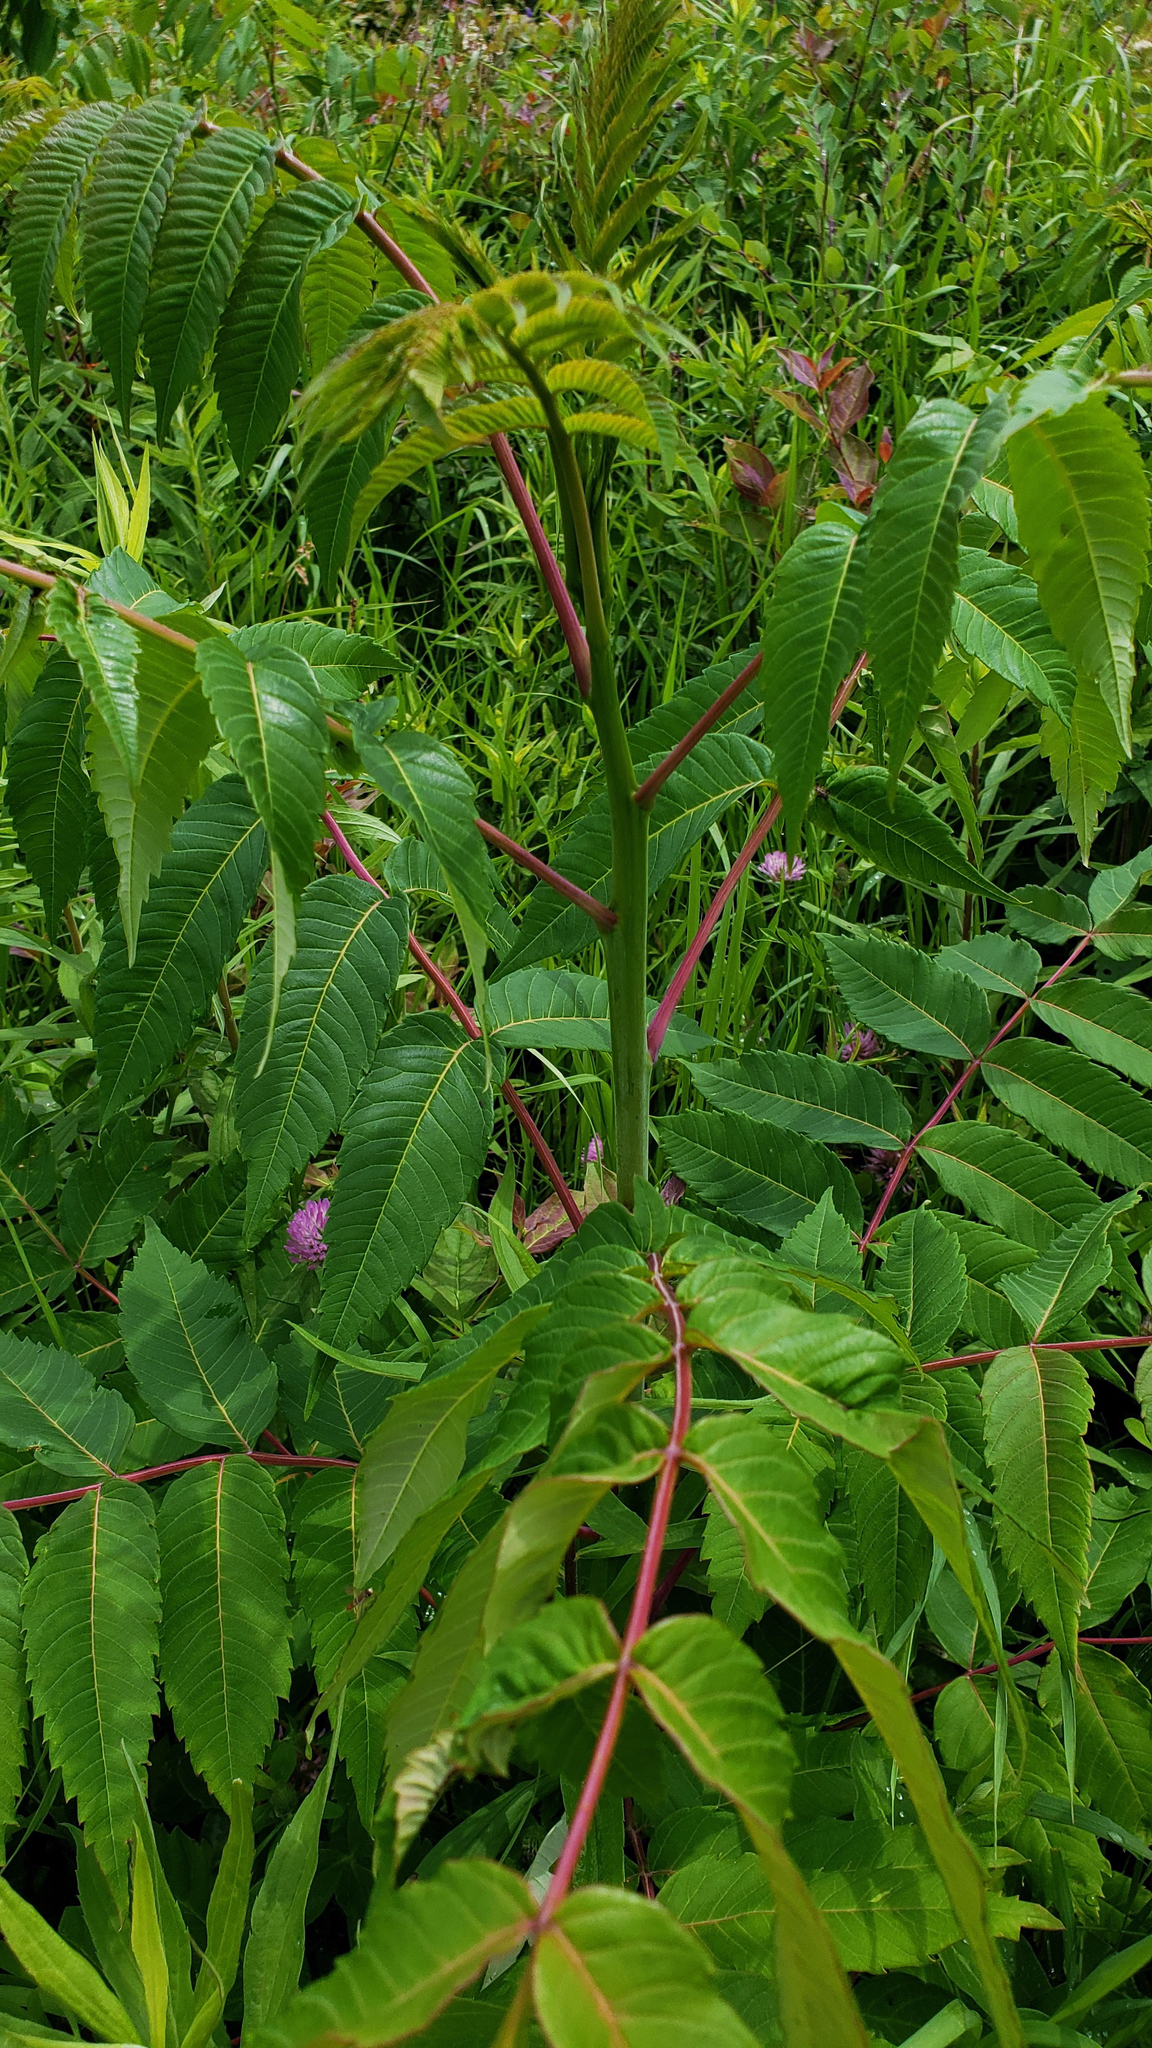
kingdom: Plantae
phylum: Tracheophyta
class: Magnoliopsida
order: Sapindales
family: Anacardiaceae
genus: Rhus
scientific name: Rhus glabra
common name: Scarlet sumac
